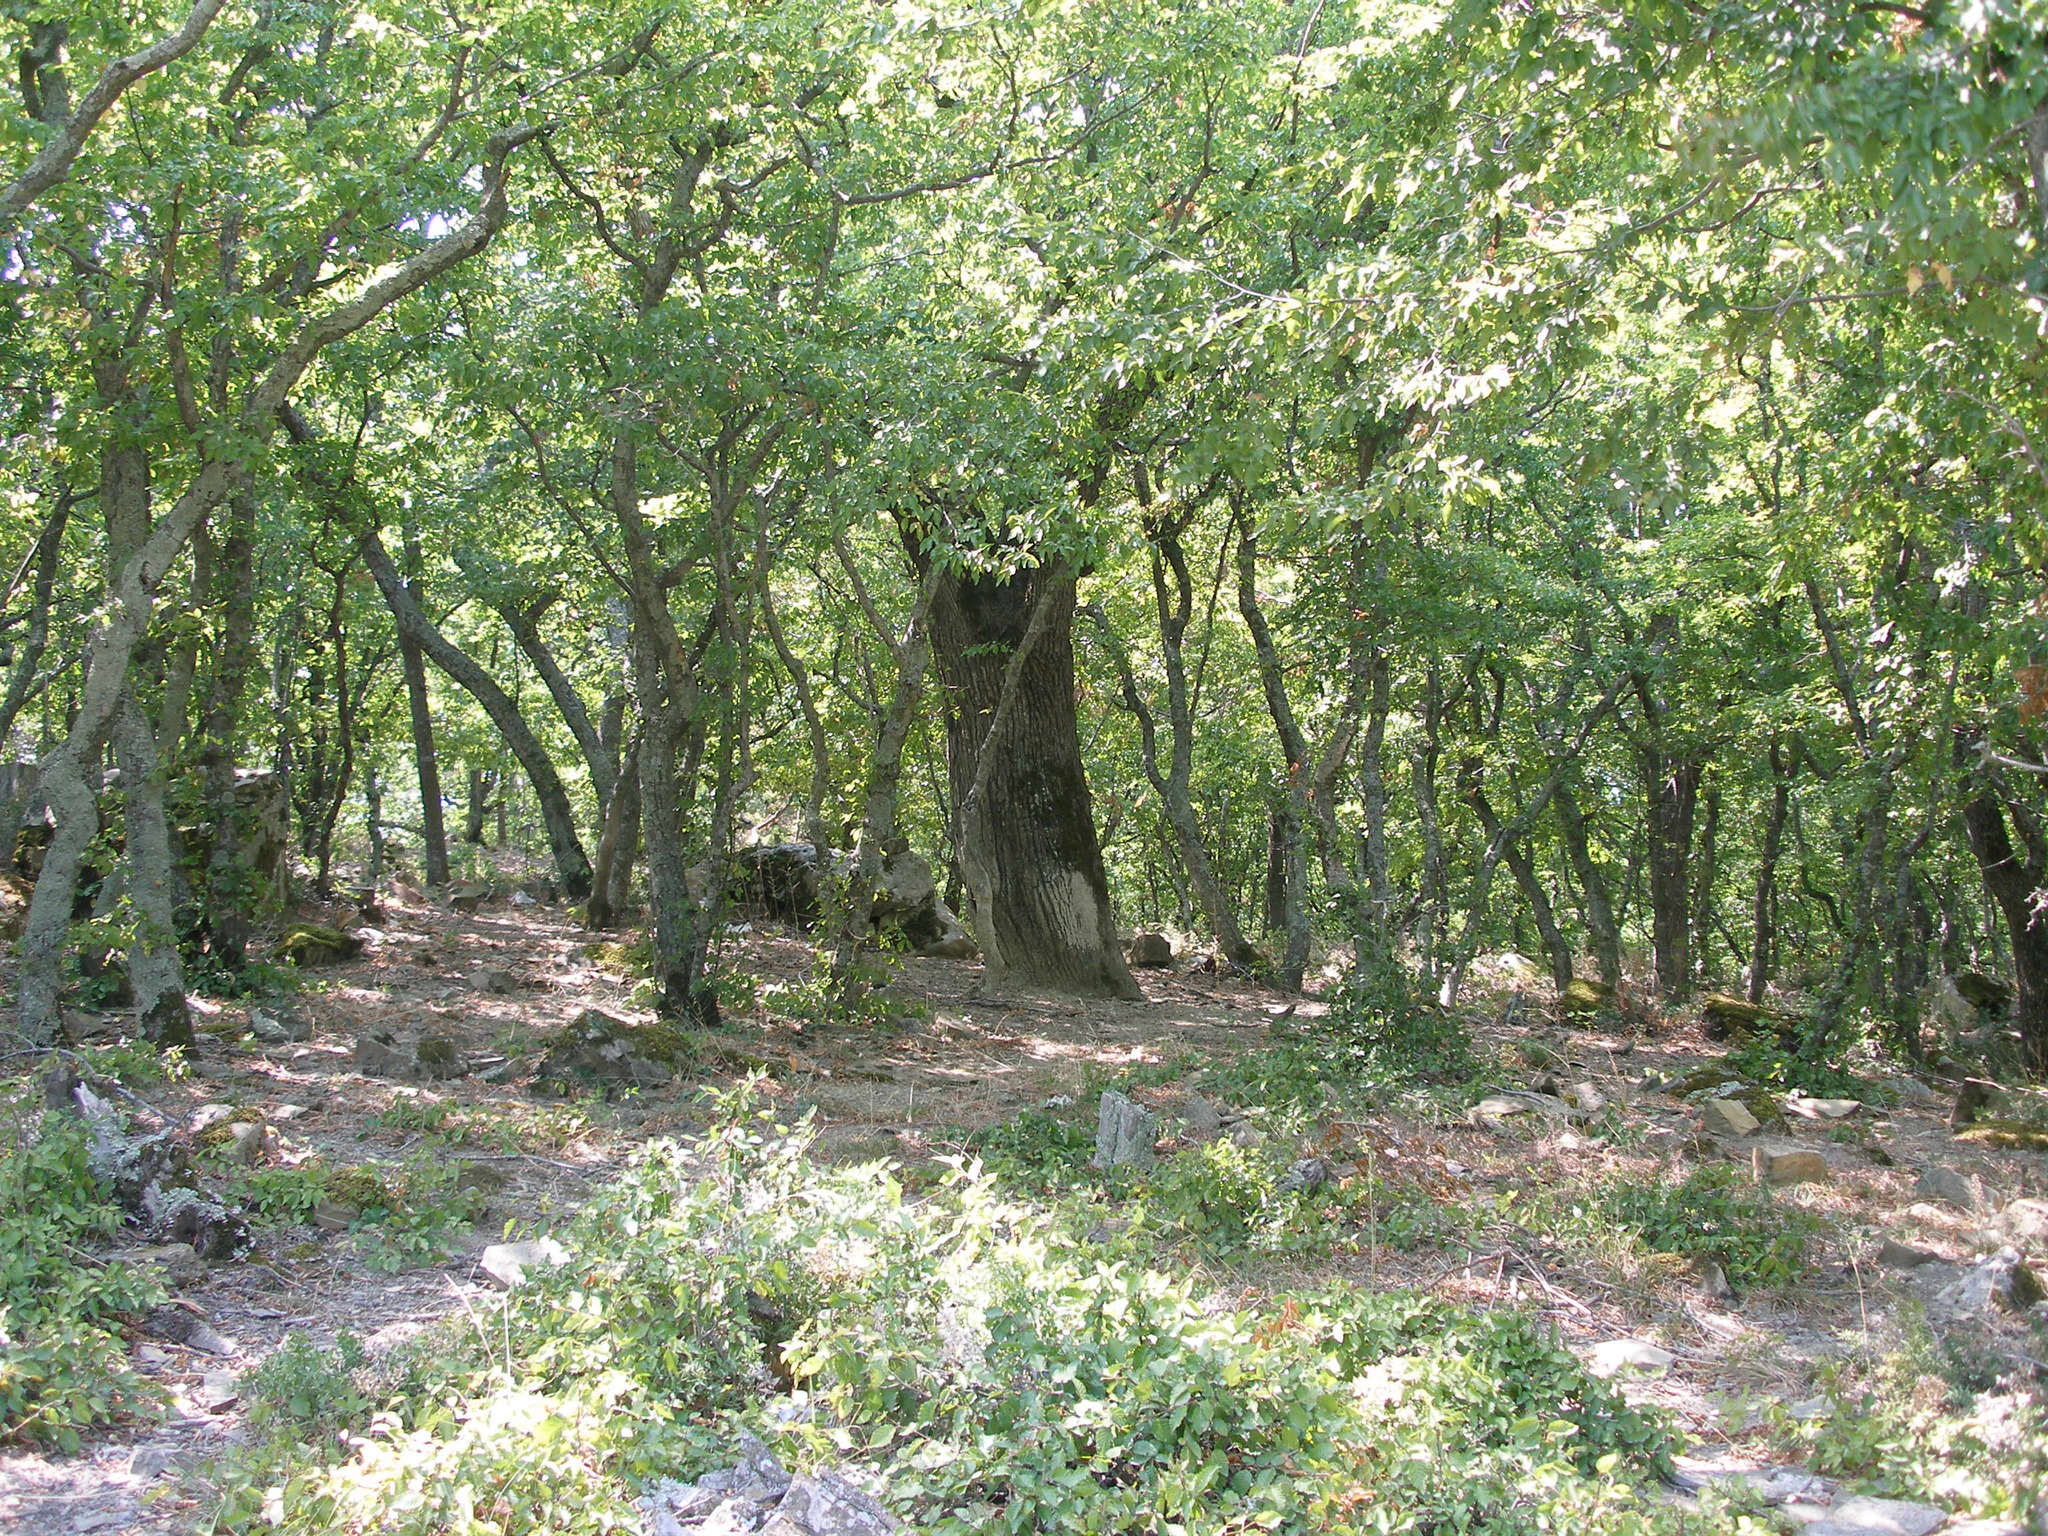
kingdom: Plantae
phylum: Tracheophyta
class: Magnoliopsida
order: Fagales
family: Betulaceae
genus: Carpinus
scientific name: Carpinus orientalis
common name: Eastern hornbeam
